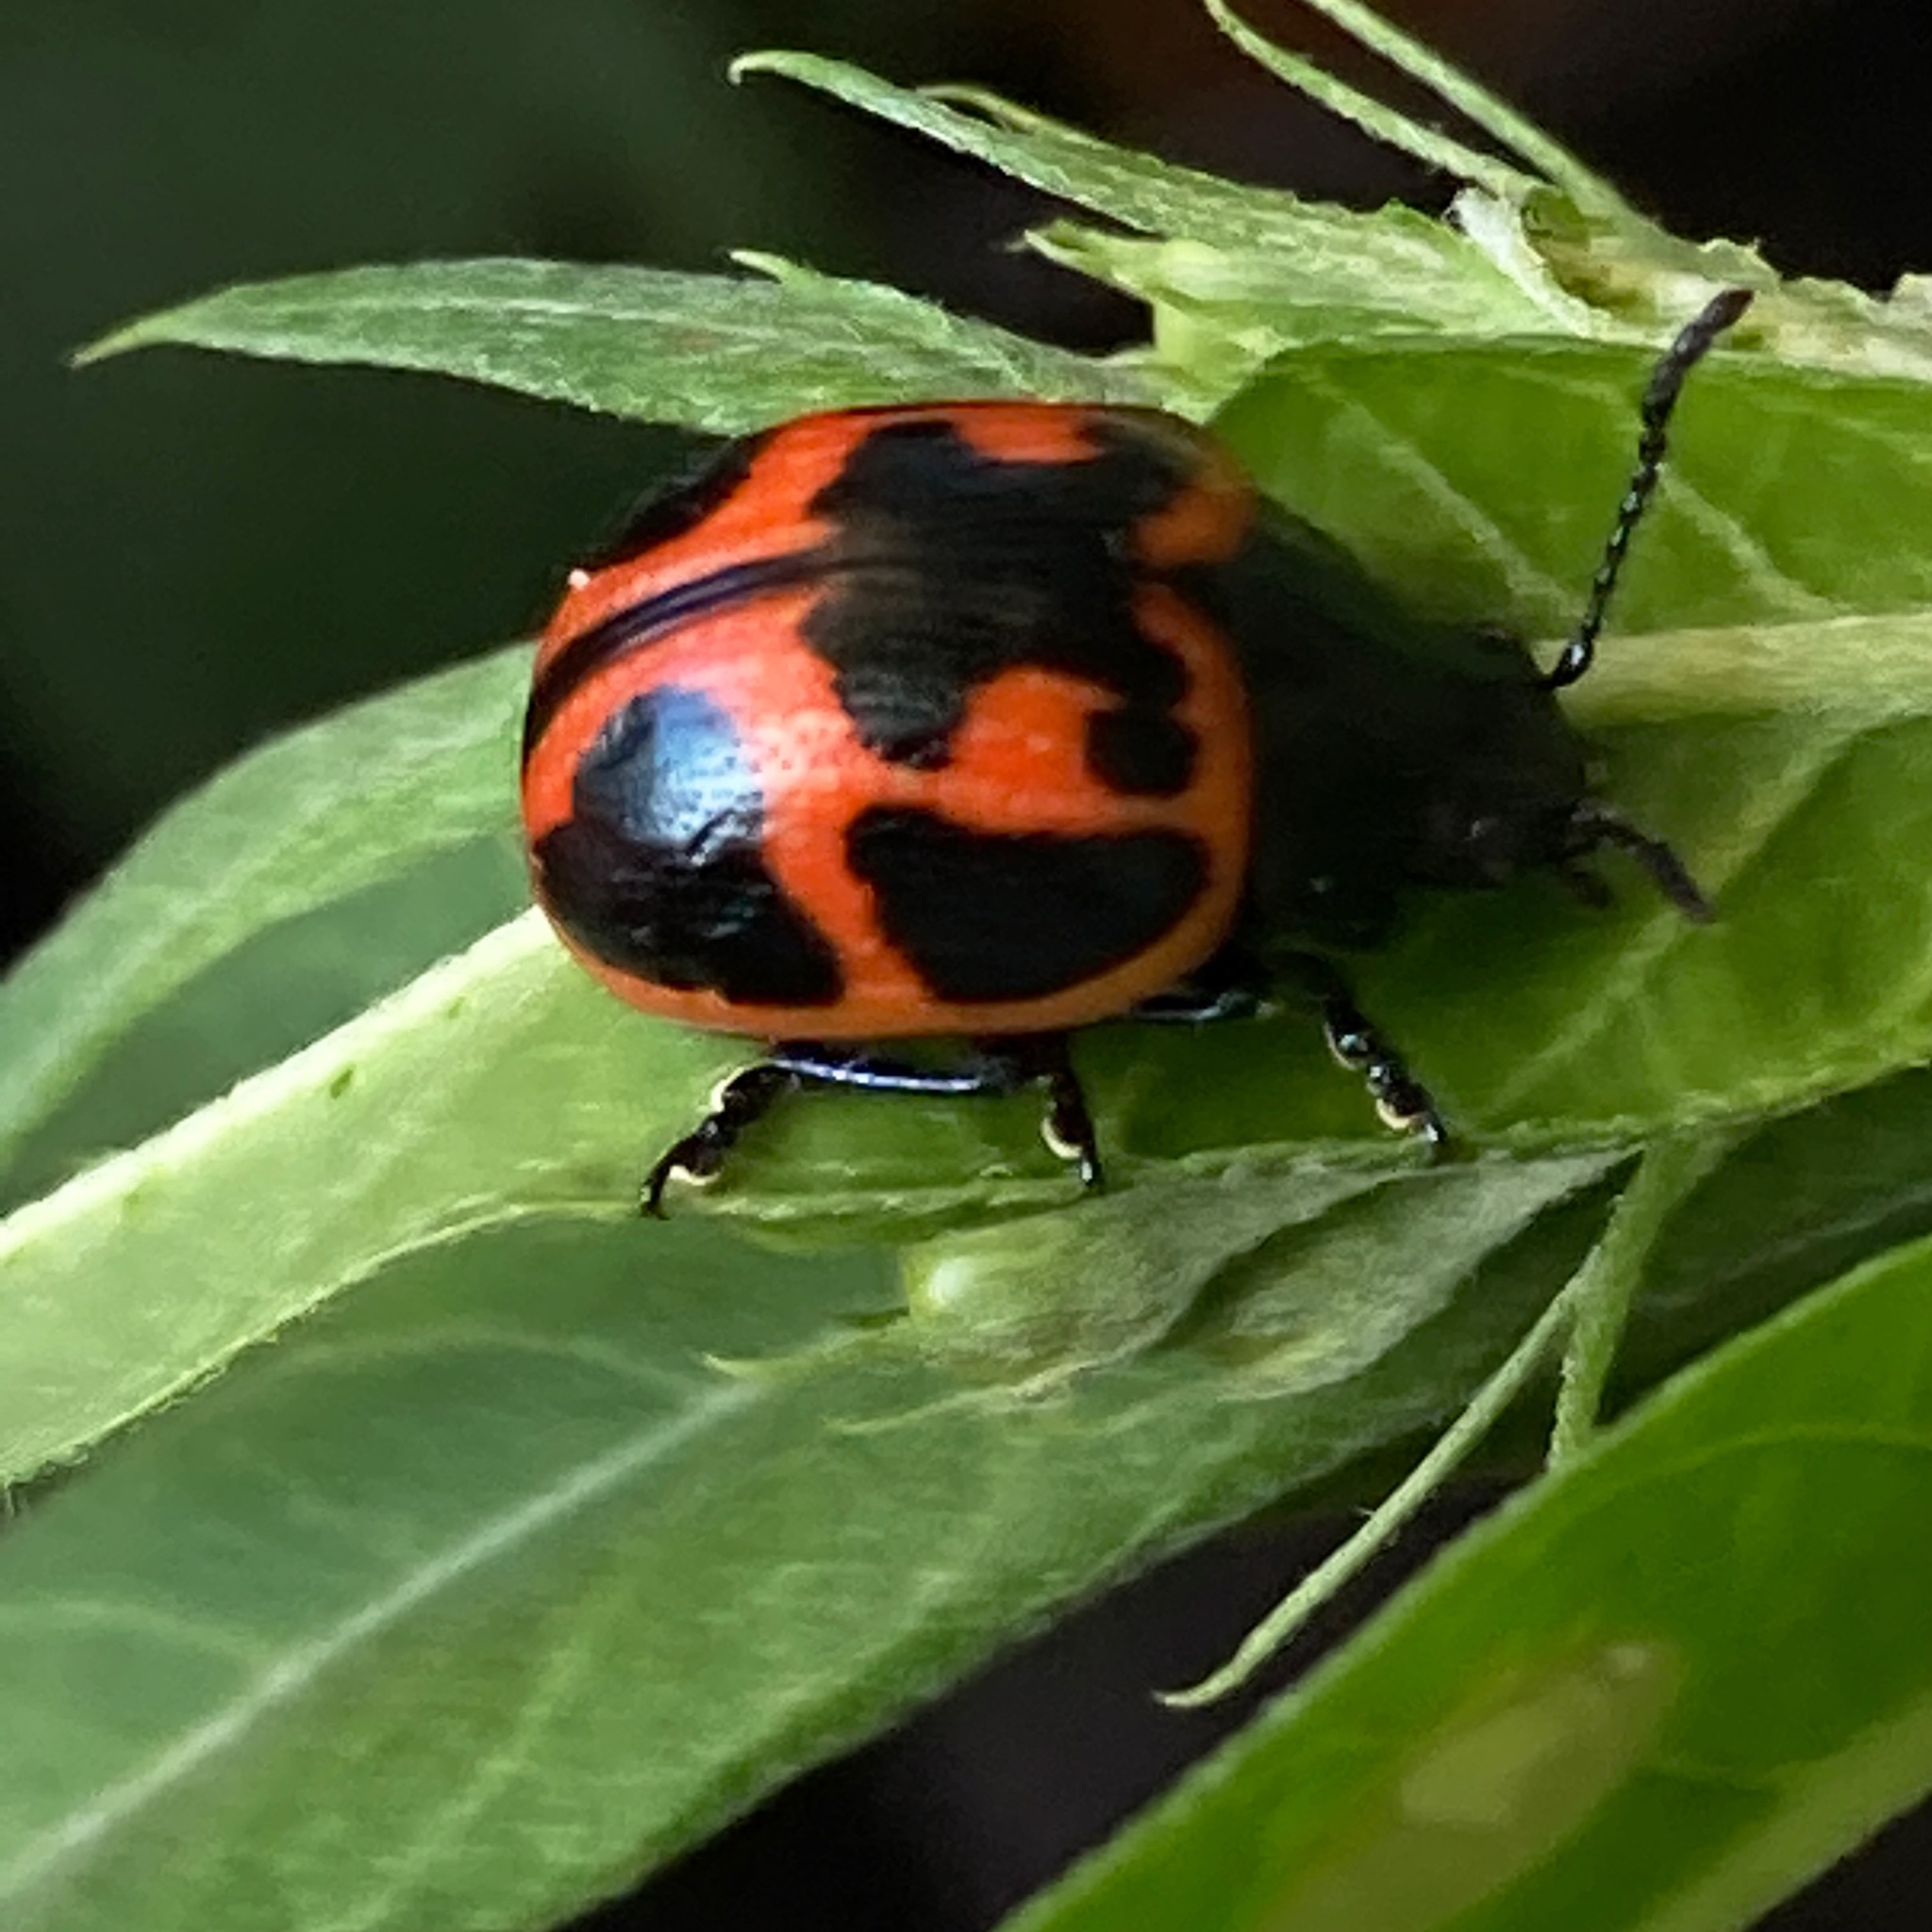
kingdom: Animalia
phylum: Arthropoda
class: Insecta
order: Coleoptera
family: Chrysomelidae
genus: Labidomera
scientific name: Labidomera clivicollis
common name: Swamp milkweed leaf beetle
